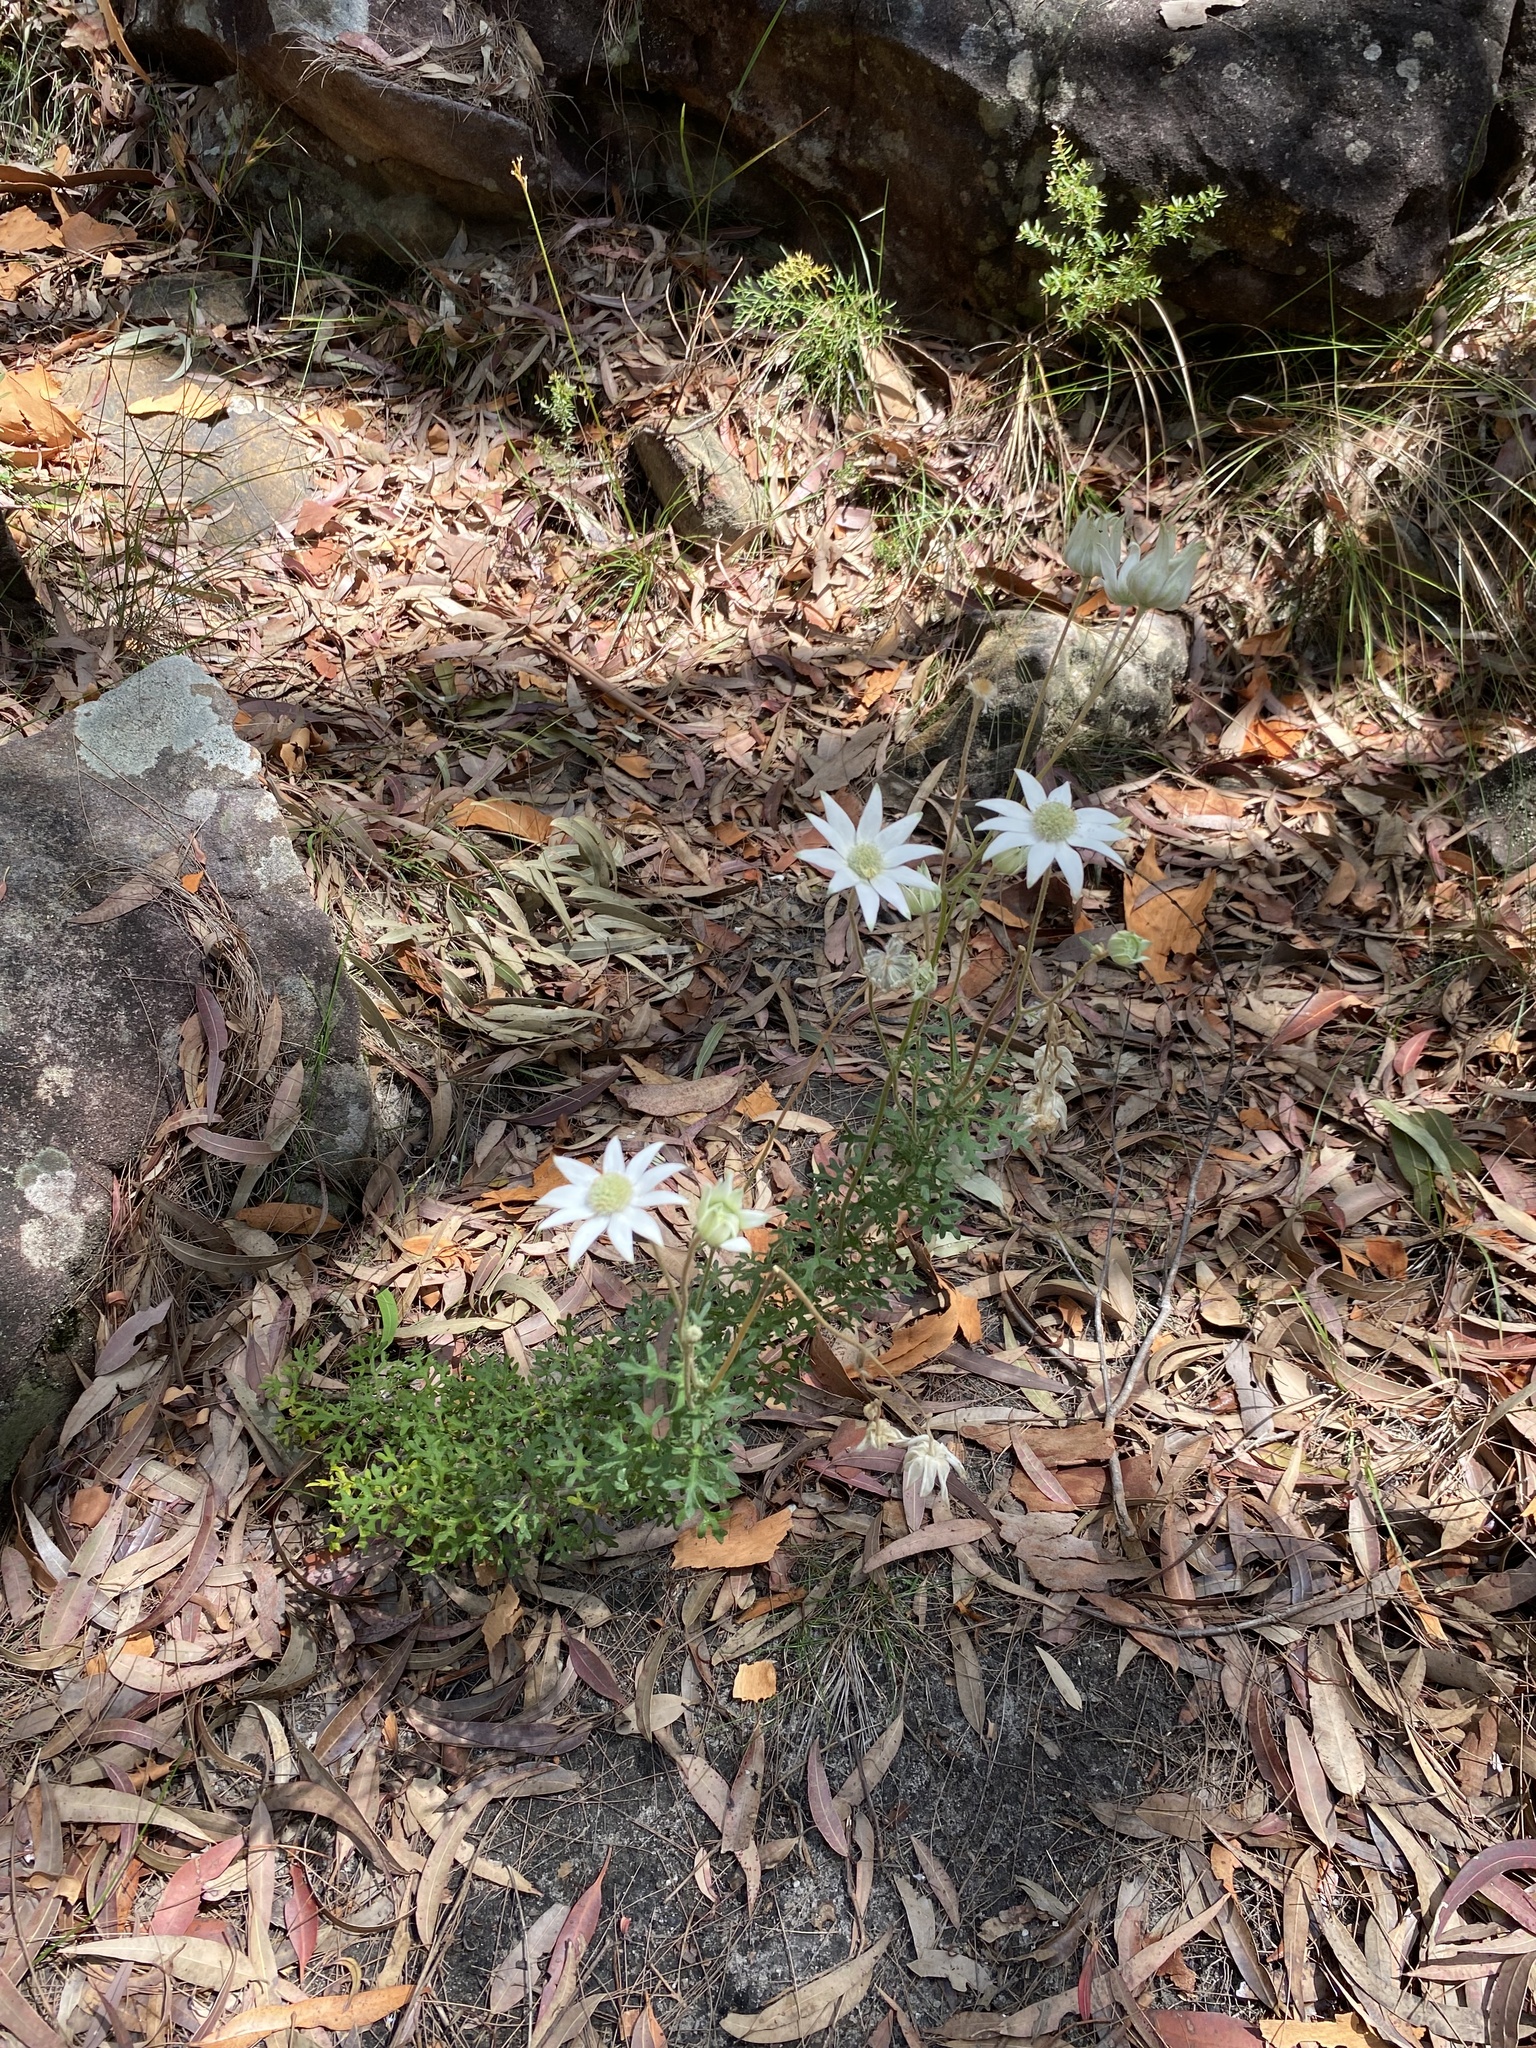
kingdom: Plantae
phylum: Tracheophyta
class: Magnoliopsida
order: Apiales
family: Apiaceae
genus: Actinotus
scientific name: Actinotus helianthi
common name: Flannel-flower
